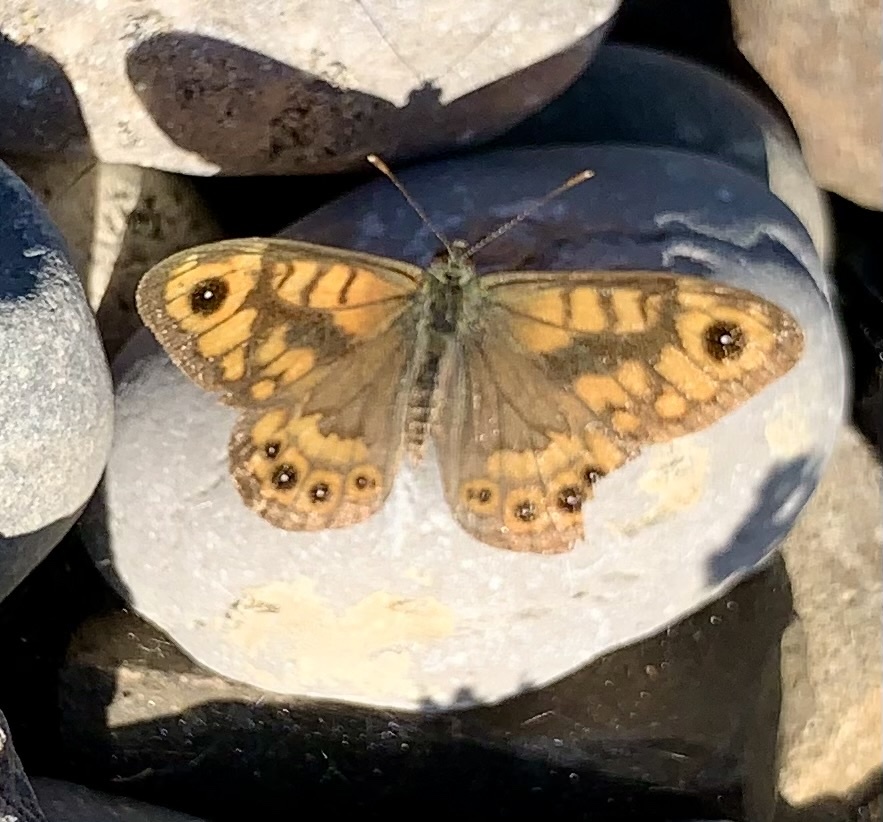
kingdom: Animalia
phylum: Arthropoda
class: Insecta
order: Lepidoptera
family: Nymphalidae
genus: Pararge
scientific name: Pararge Lasiommata megera
